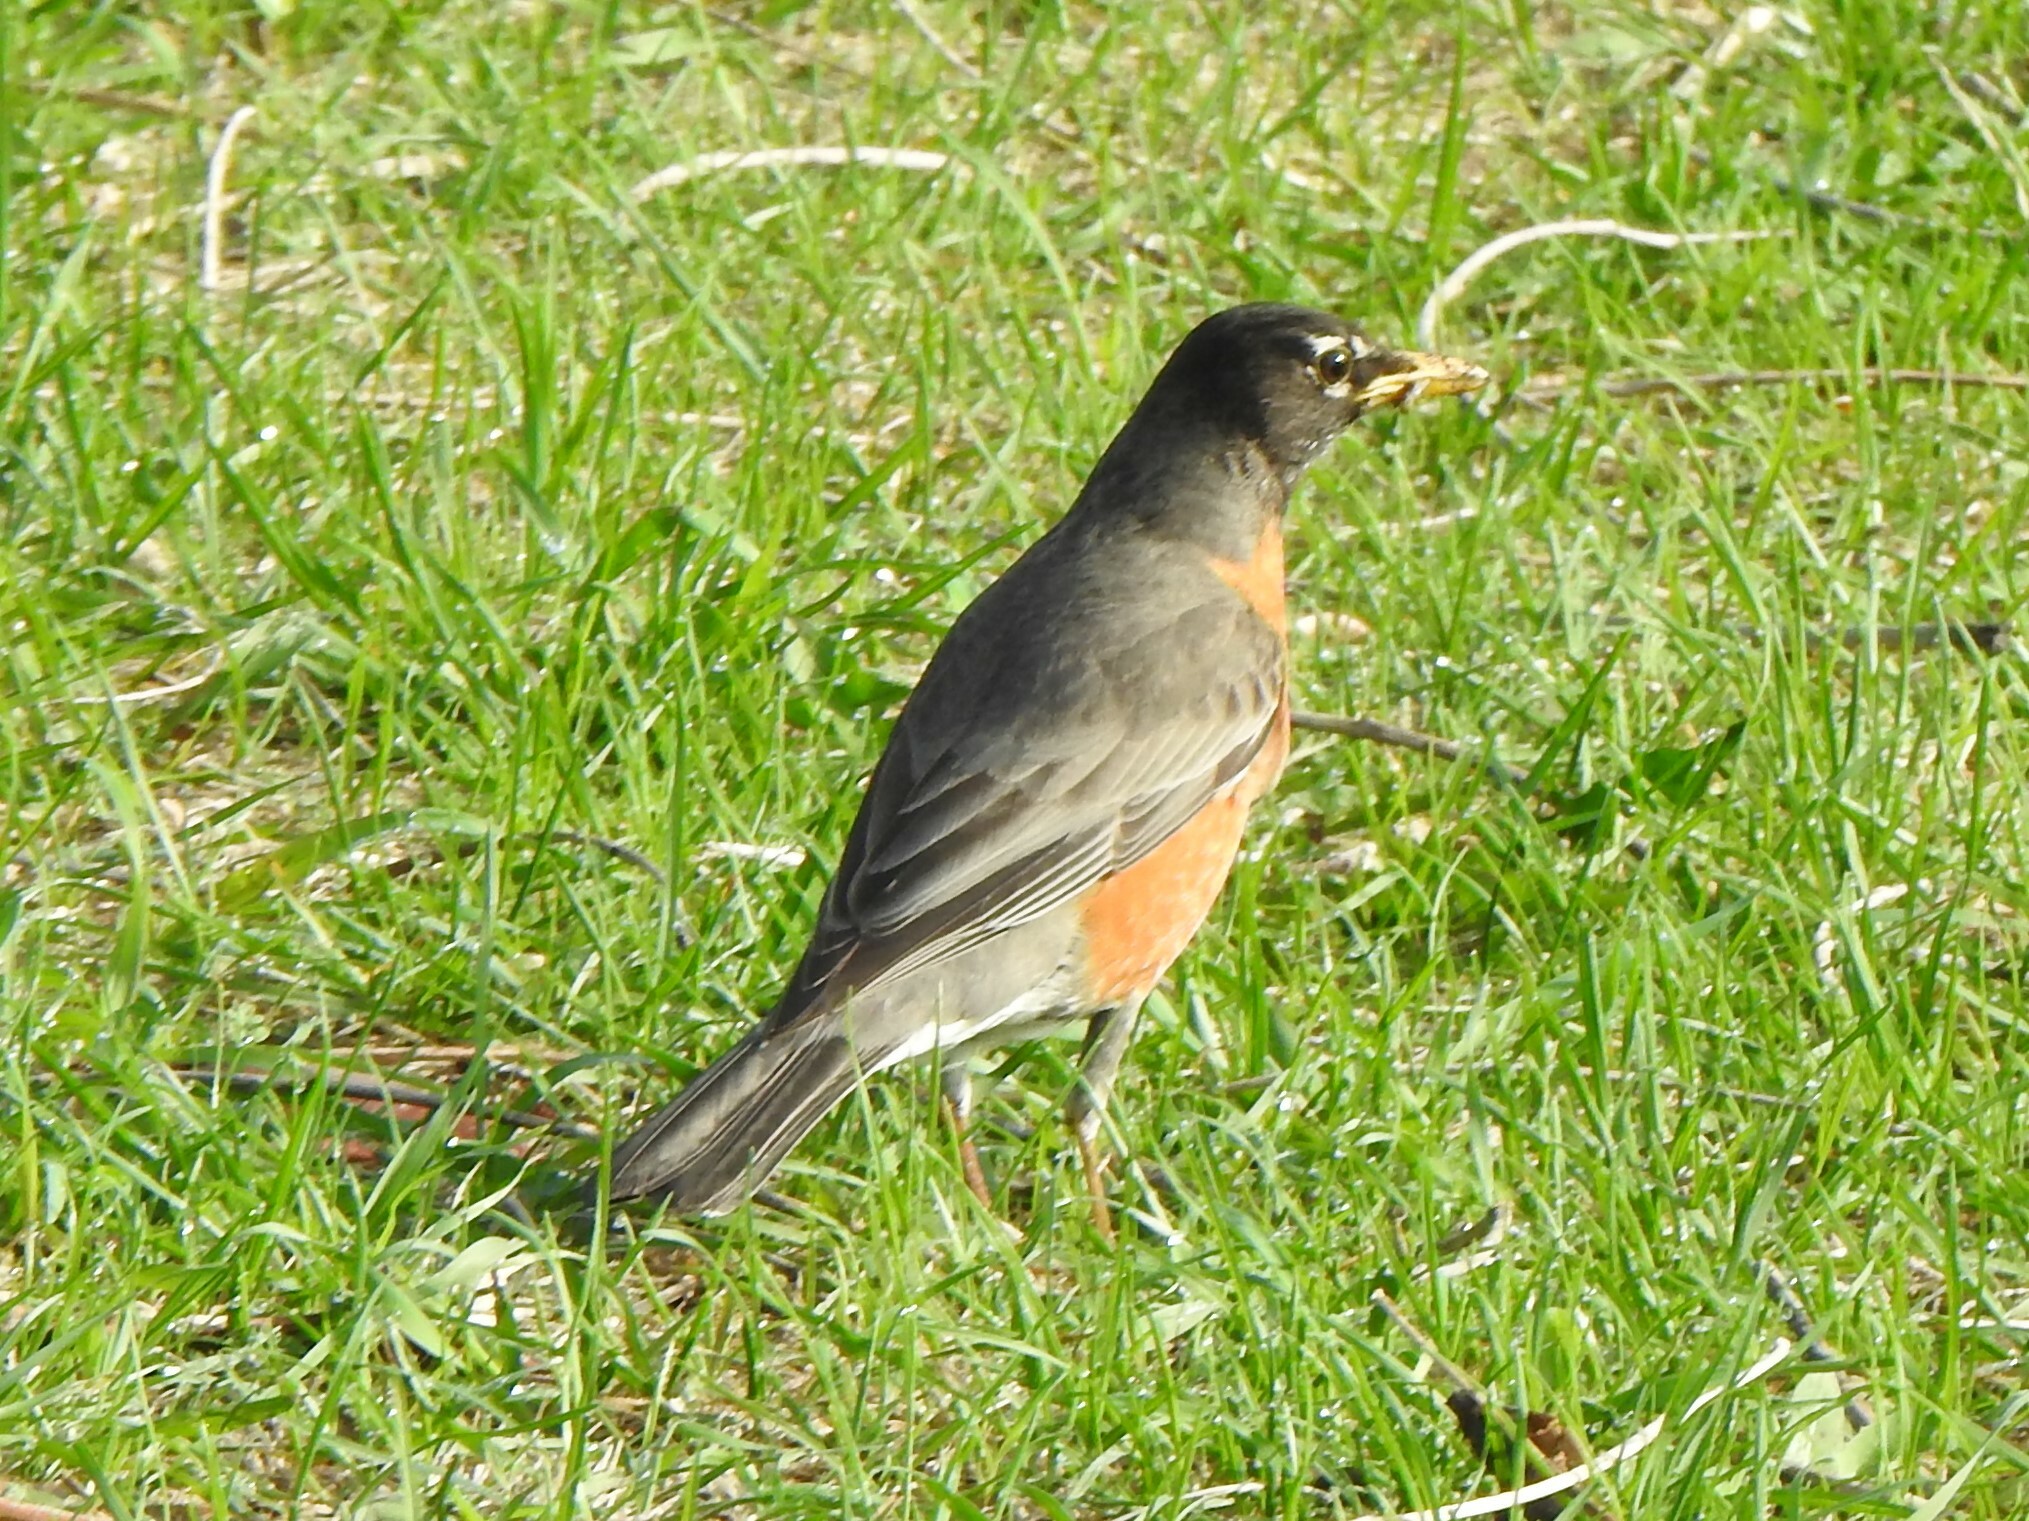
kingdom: Animalia
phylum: Chordata
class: Aves
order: Passeriformes
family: Turdidae
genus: Turdus
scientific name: Turdus migratorius
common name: American robin
